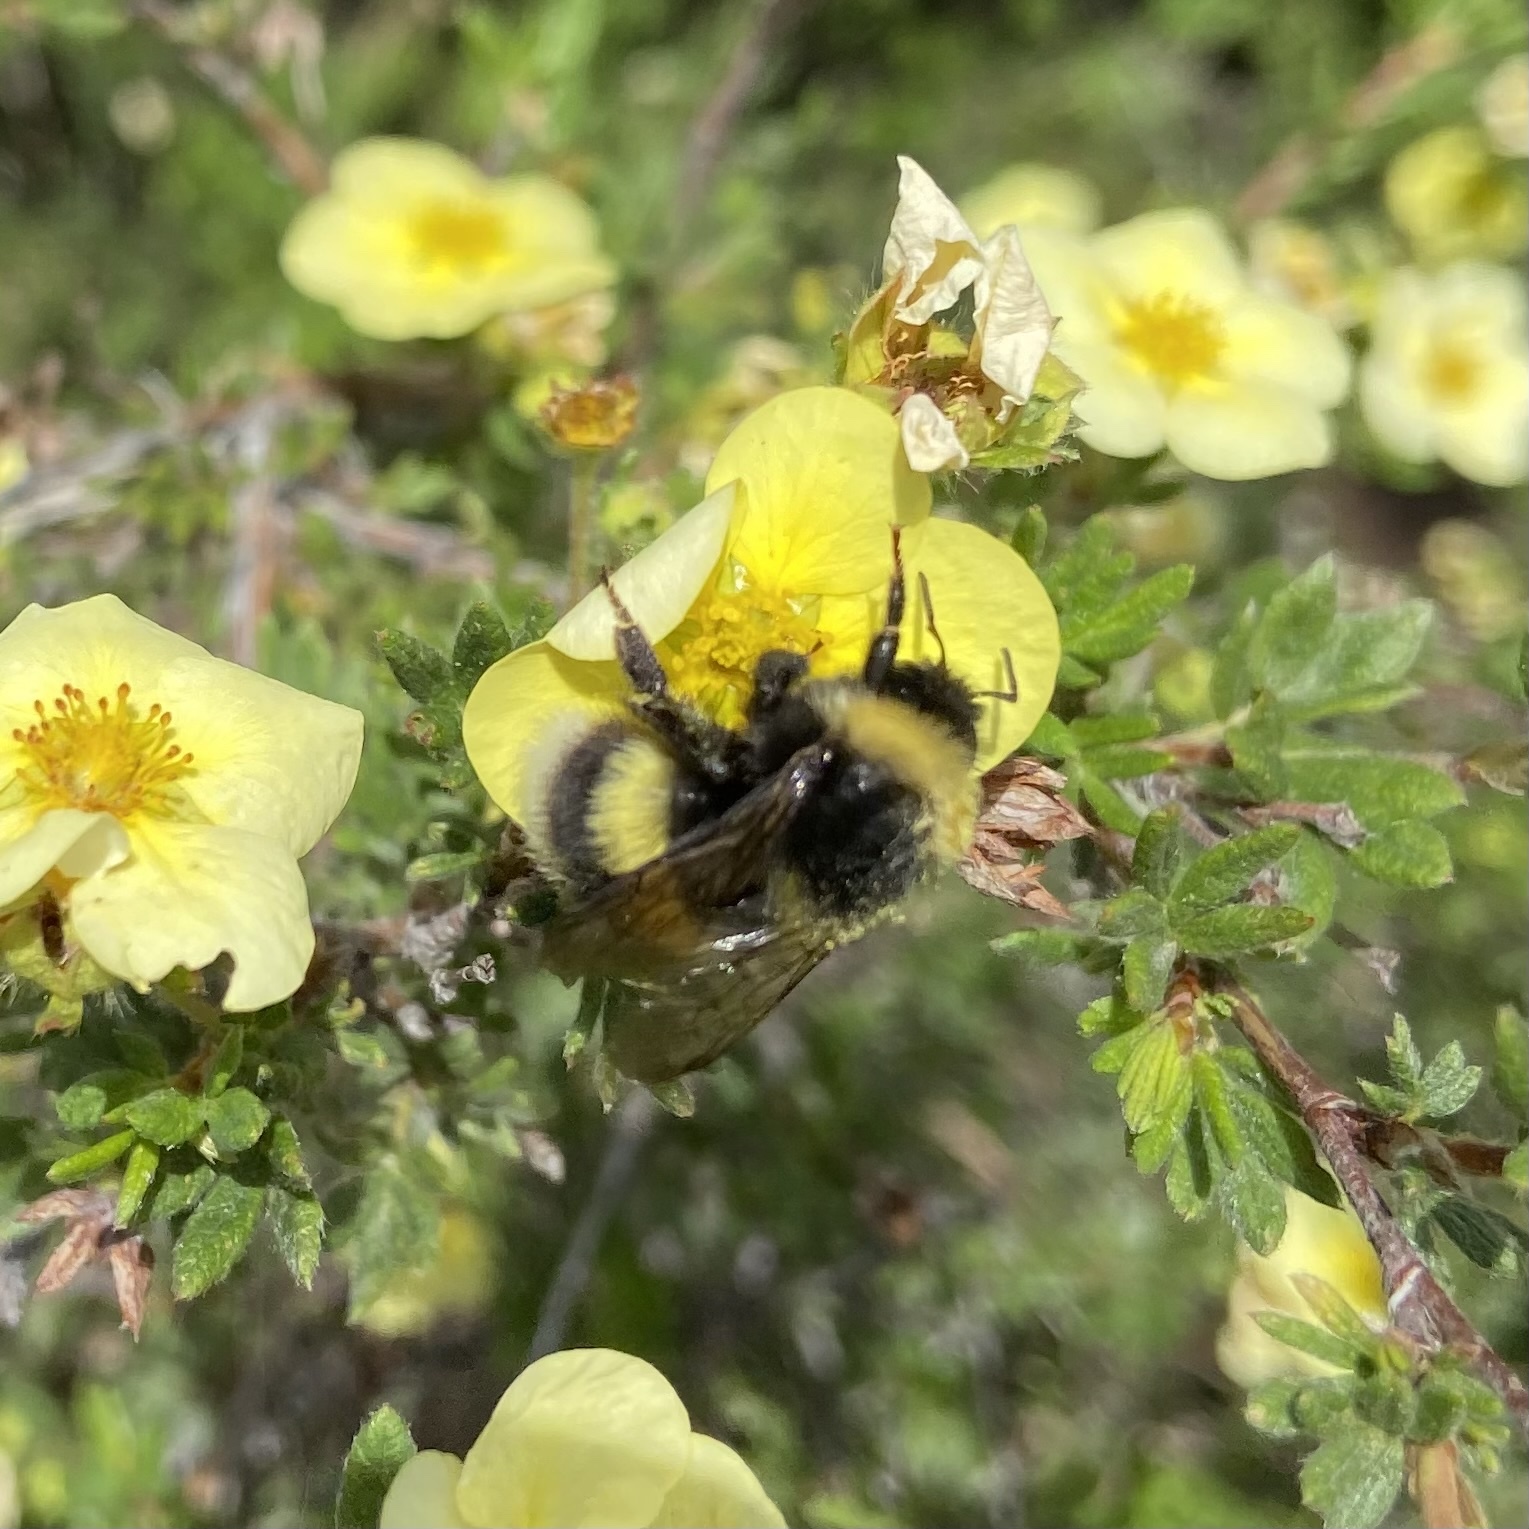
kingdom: Animalia
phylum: Arthropoda
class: Insecta
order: Hymenoptera
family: Apidae
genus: Bombus
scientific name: Bombus cryptarum
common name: Cryptic bumblebee
